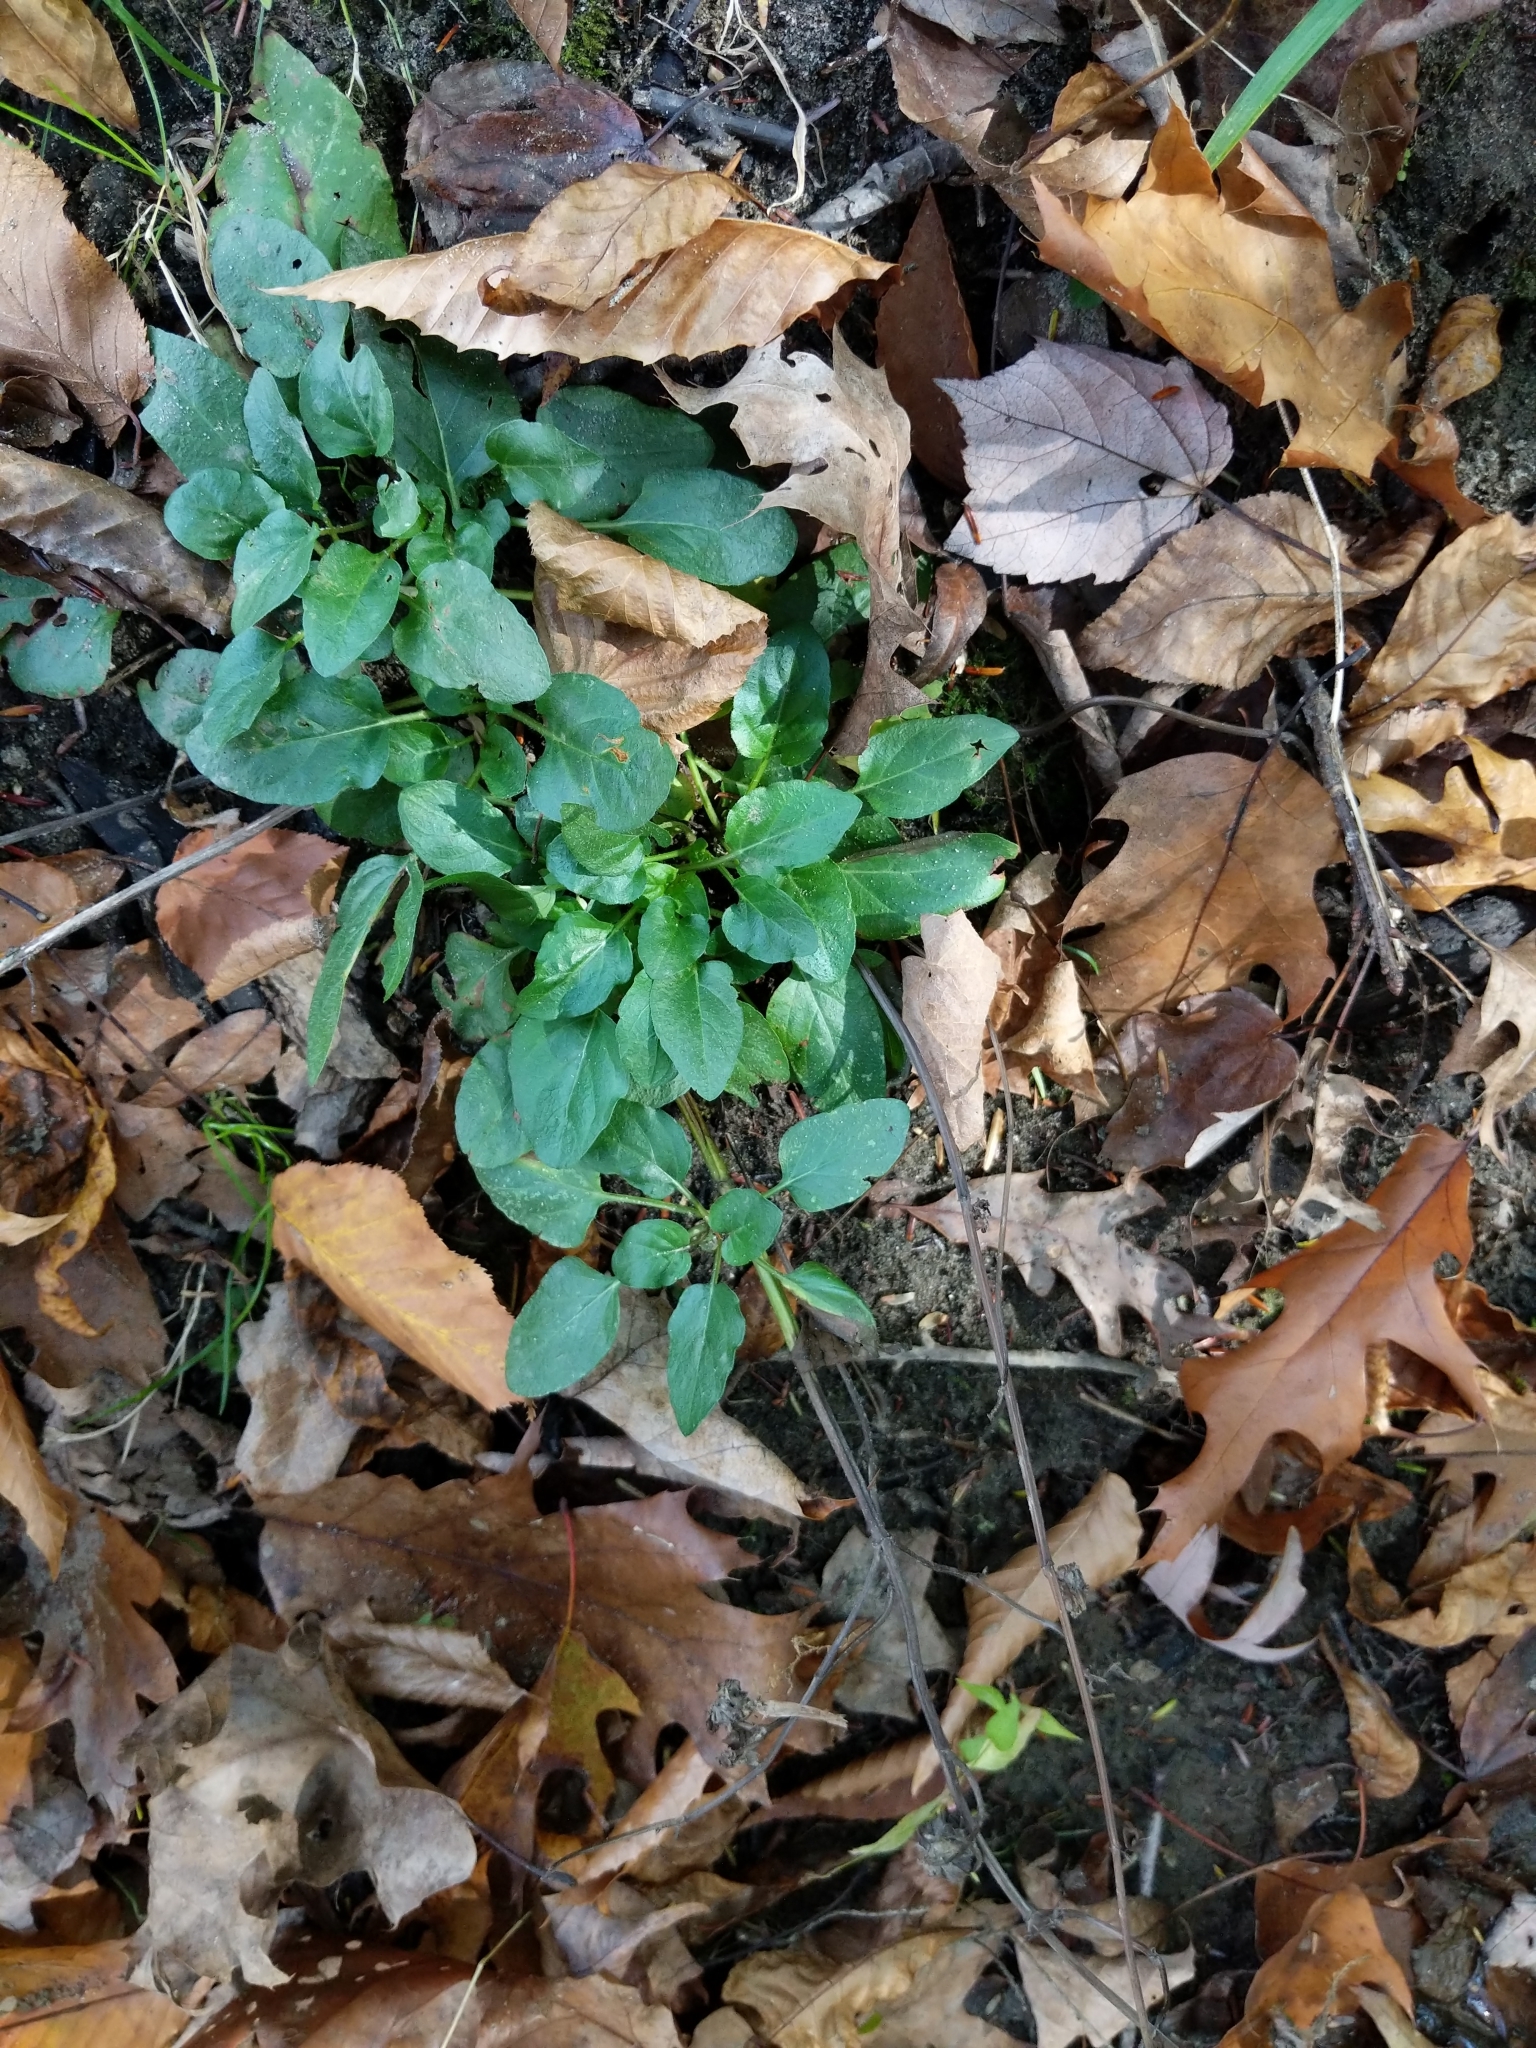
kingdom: Plantae
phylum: Tracheophyta
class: Magnoliopsida
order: Lamiales
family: Lamiaceae
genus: Prunella
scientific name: Prunella vulgaris
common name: Heal-all
